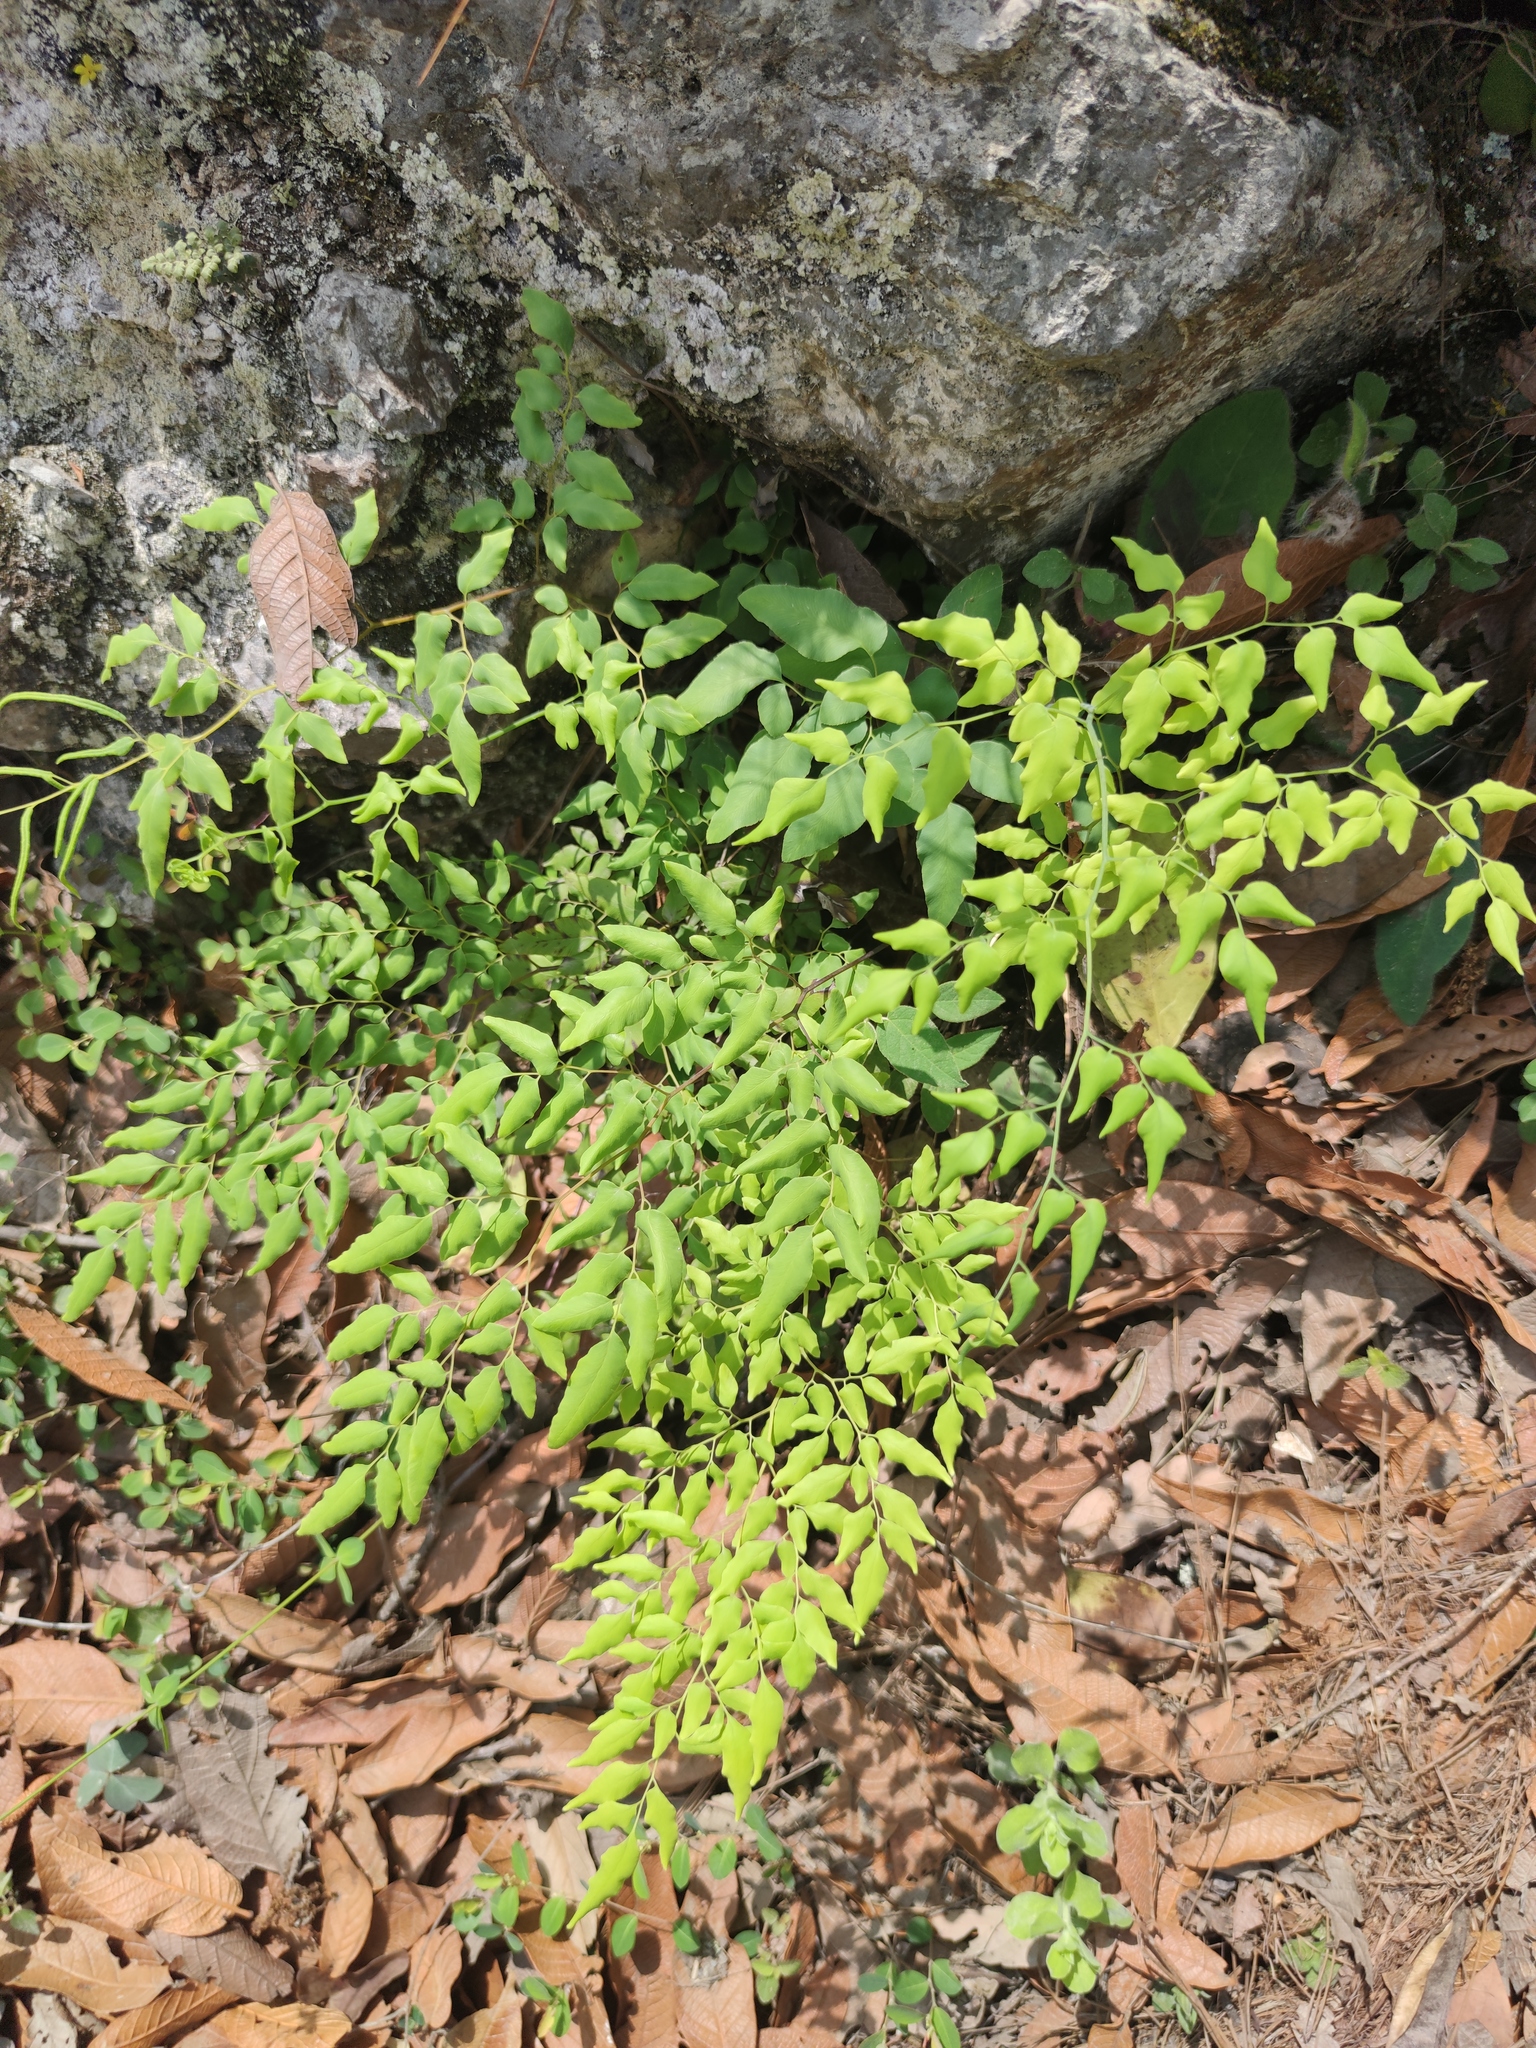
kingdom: Plantae
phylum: Tracheophyta
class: Polypodiopsida
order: Polypodiales
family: Pteridaceae
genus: Llavea
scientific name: Llavea cordifolia
